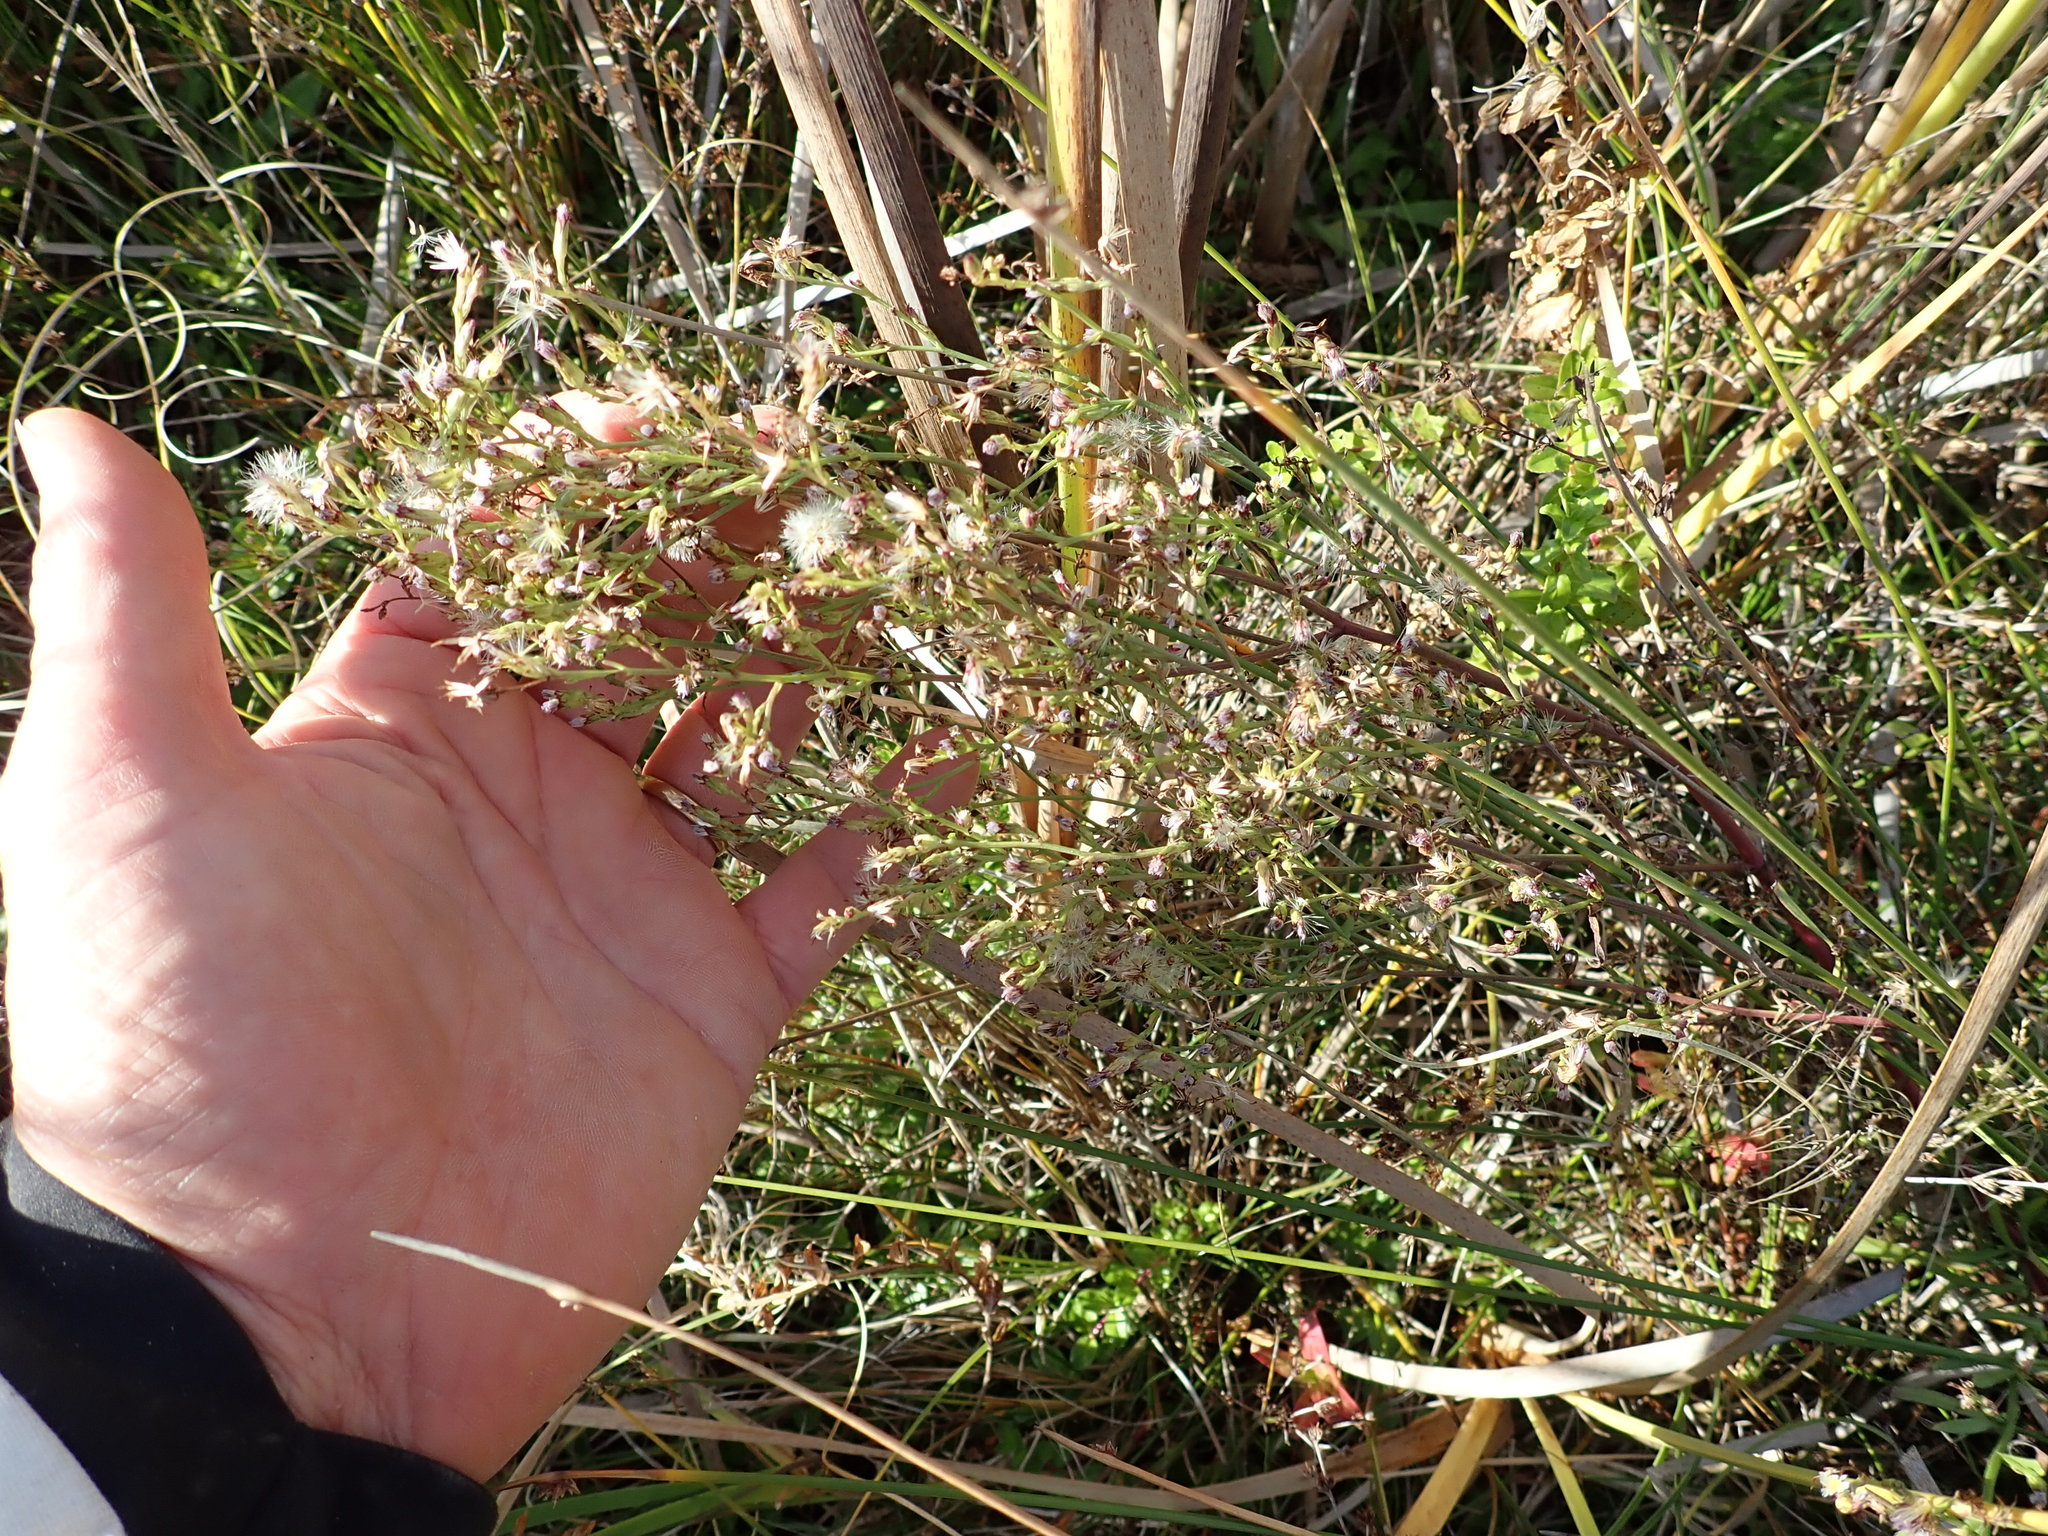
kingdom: Plantae
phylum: Tracheophyta
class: Magnoliopsida
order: Asterales
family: Asteraceae
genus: Symphyotrichum
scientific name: Symphyotrichum subulatum
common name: Annual saltmarsh aster
